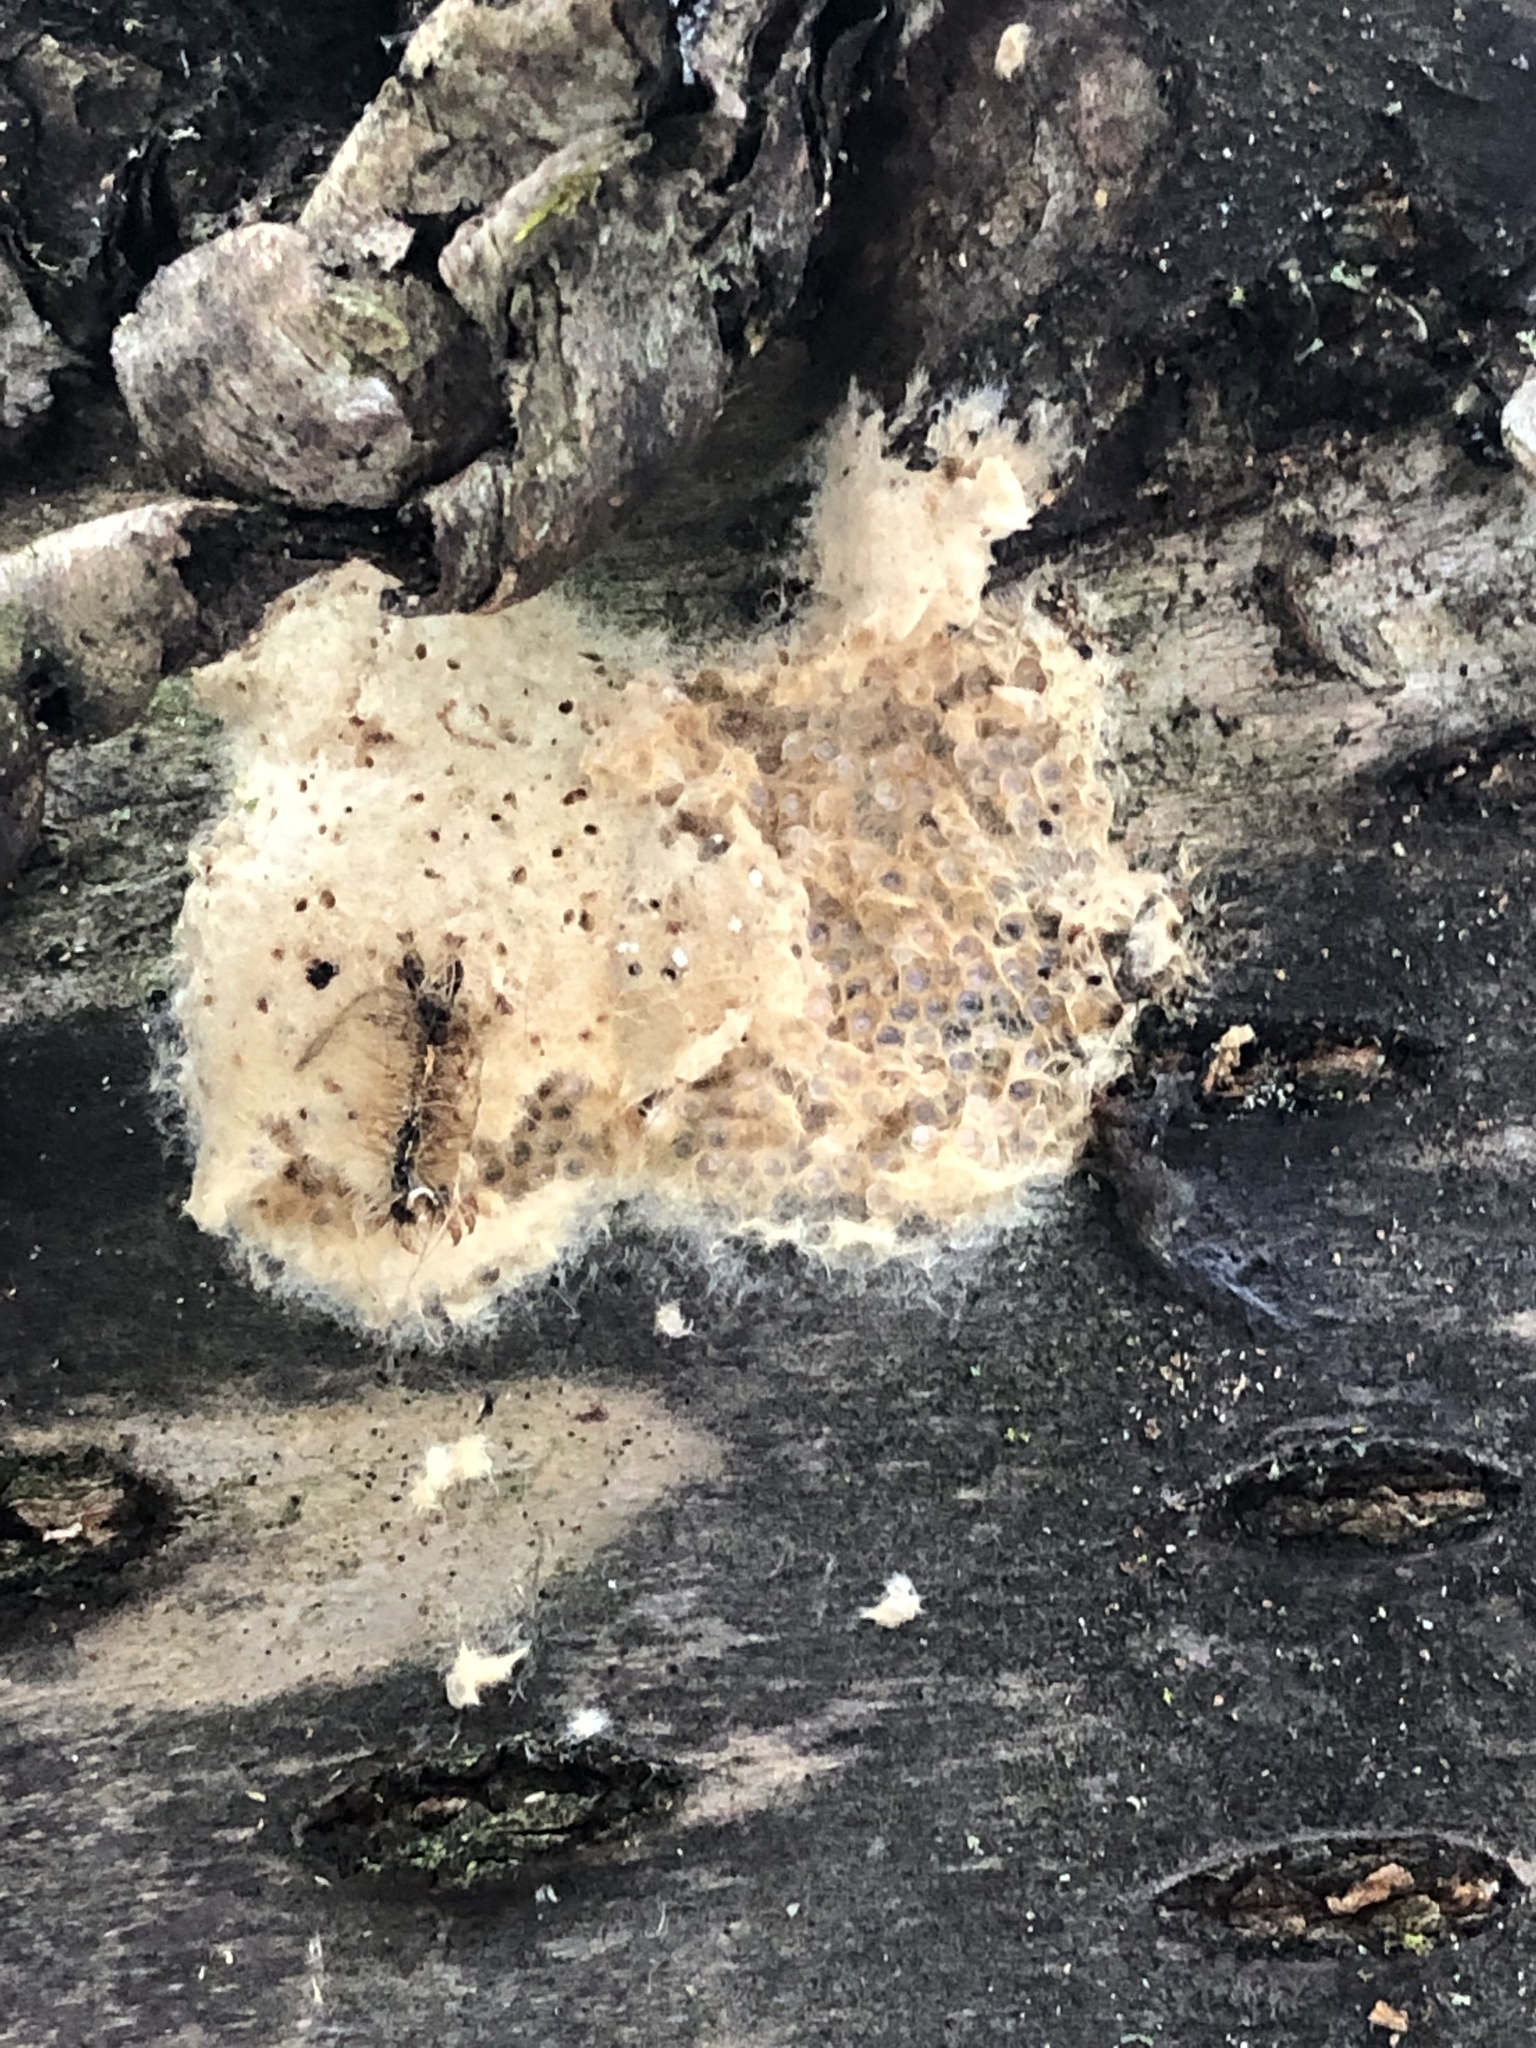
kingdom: Animalia
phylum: Arthropoda
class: Insecta
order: Lepidoptera
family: Erebidae
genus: Lymantria
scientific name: Lymantria dispar
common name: Gypsy moth
